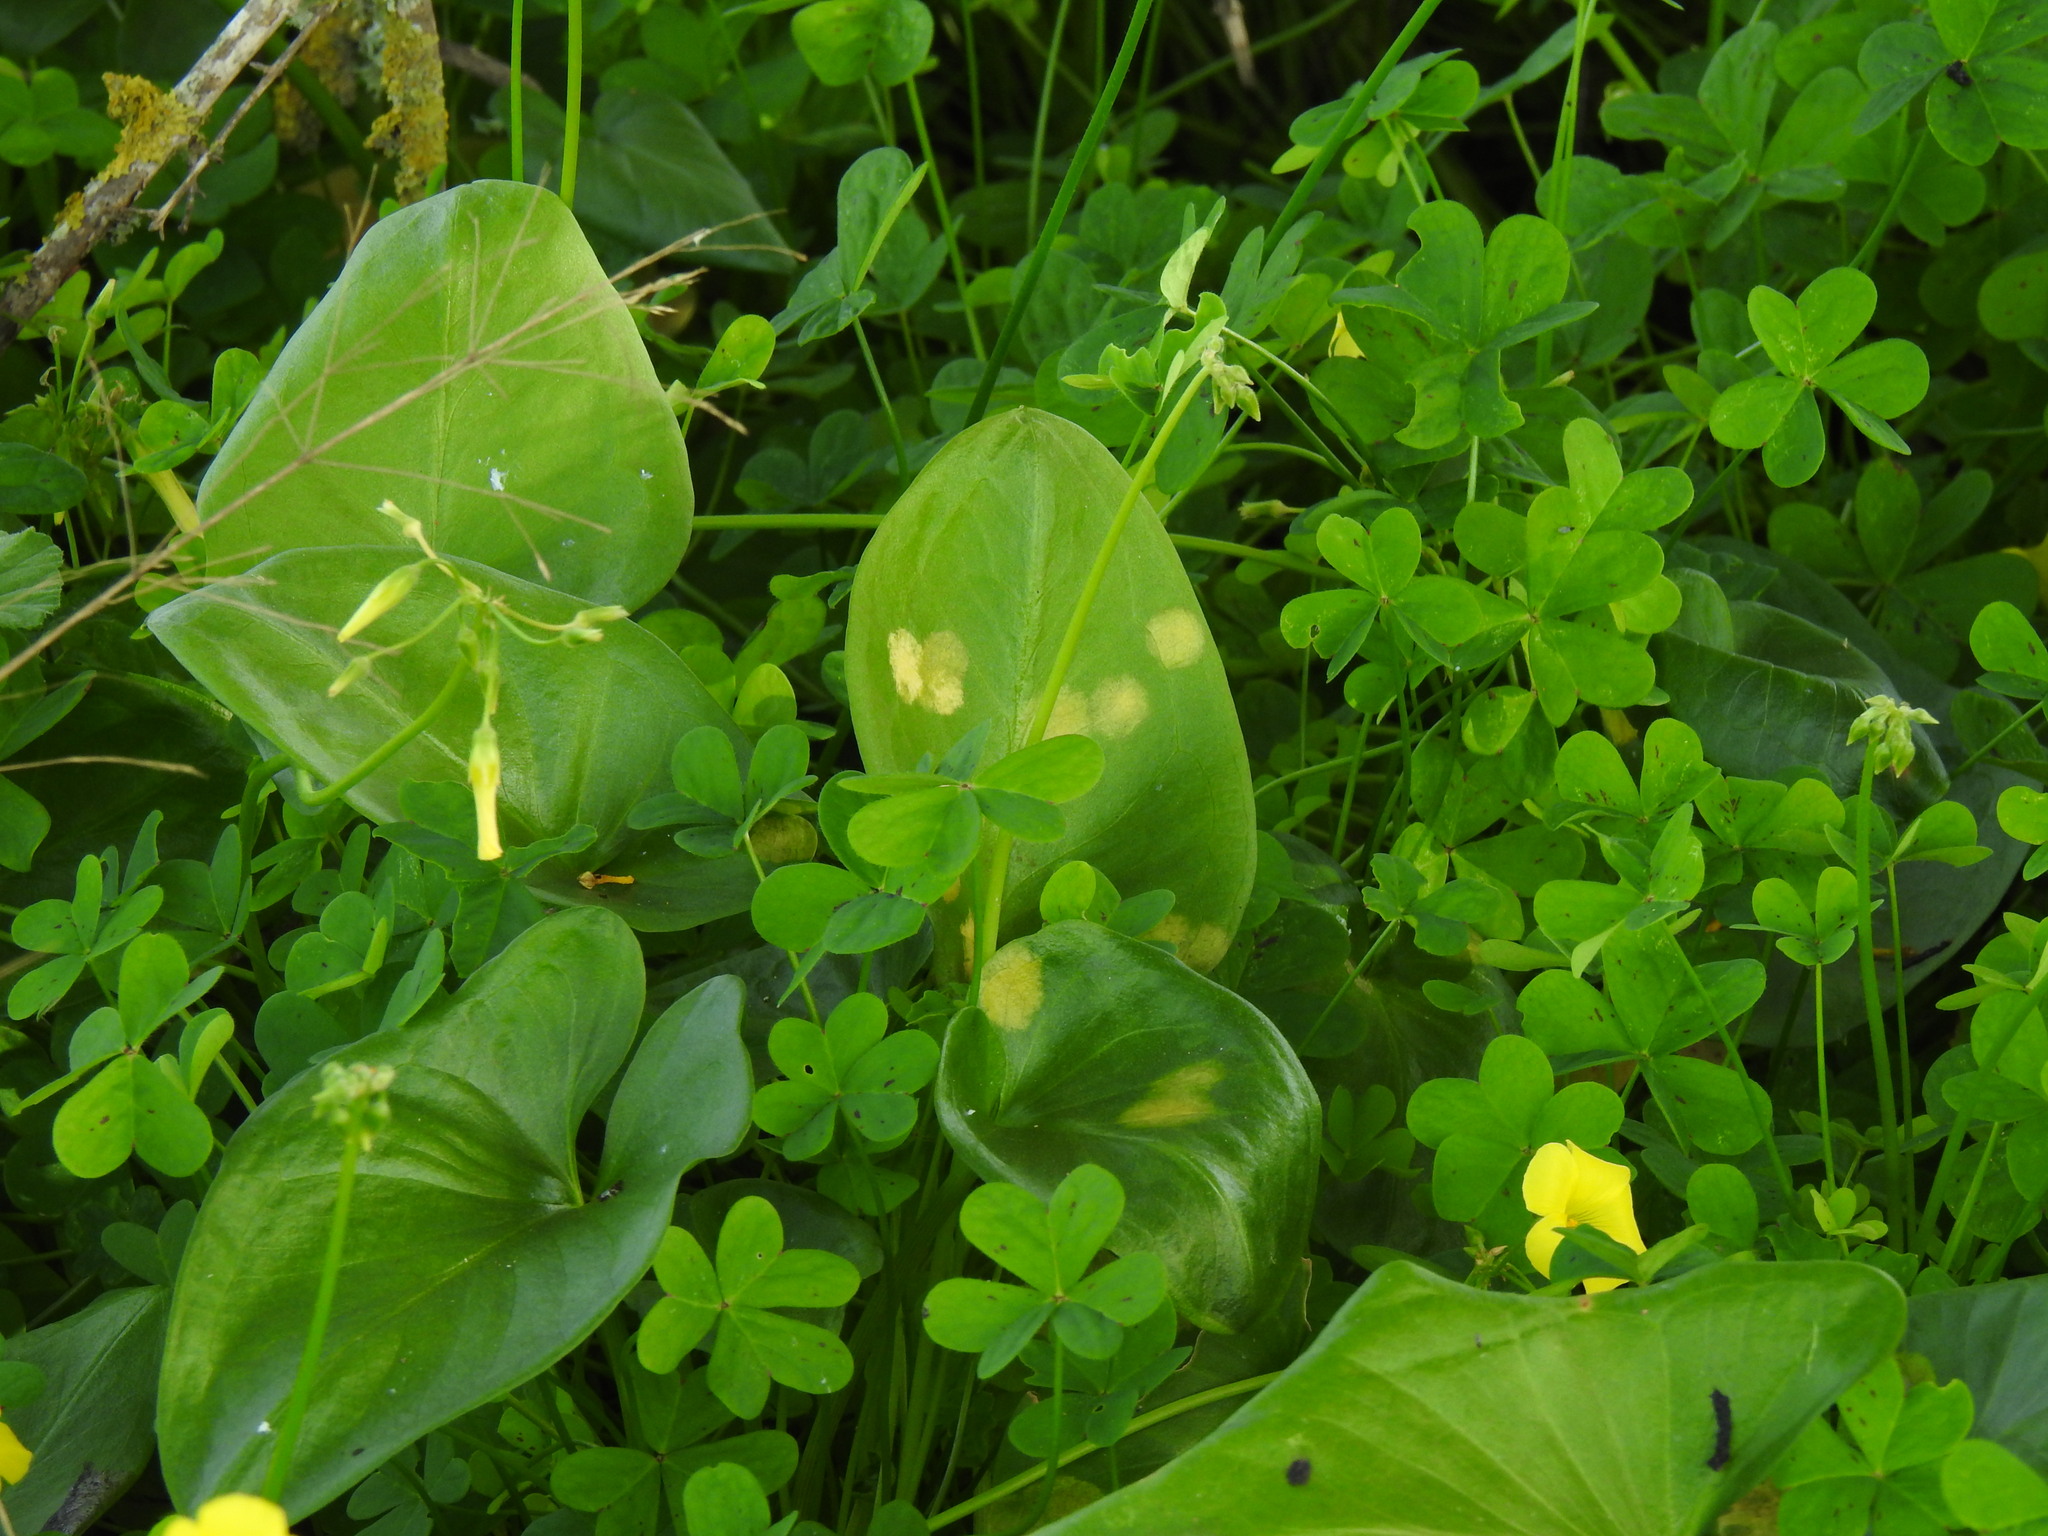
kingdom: Chromista
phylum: Ochrophyta
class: Xanthophyceae
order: Phyllosiphonales
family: Phyllosiphonaceae
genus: Phyllosiphon
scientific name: Phyllosiphon arisari
